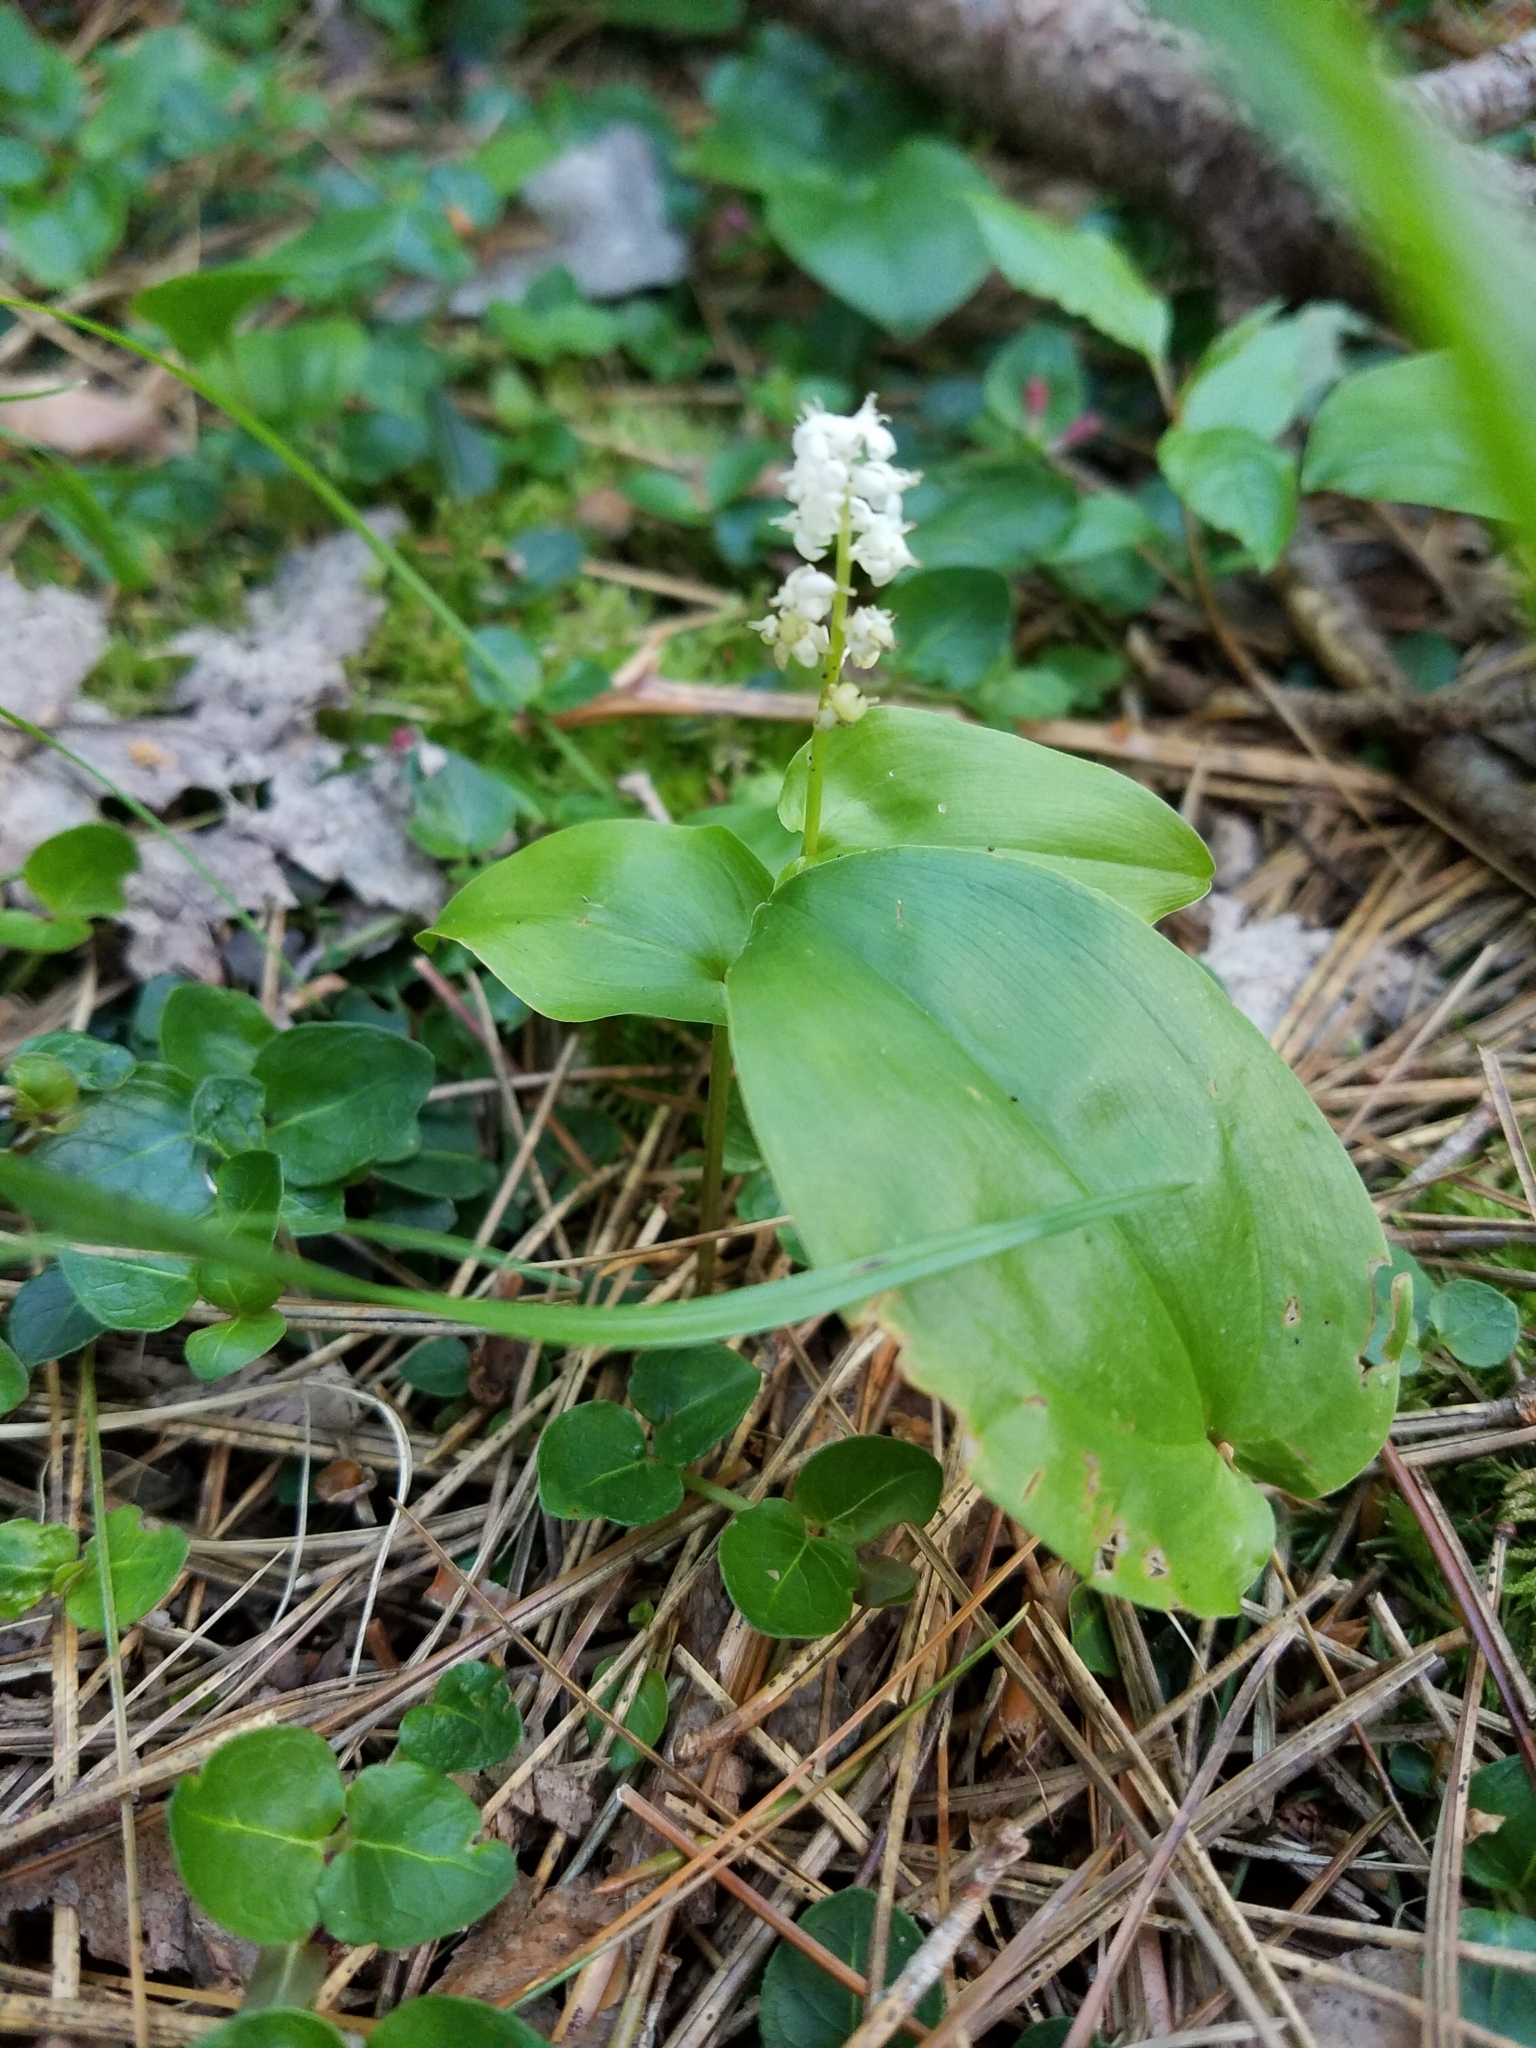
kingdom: Plantae
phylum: Tracheophyta
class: Liliopsida
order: Asparagales
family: Asparagaceae
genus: Maianthemum
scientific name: Maianthemum canadense
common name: False lily-of-the-valley
